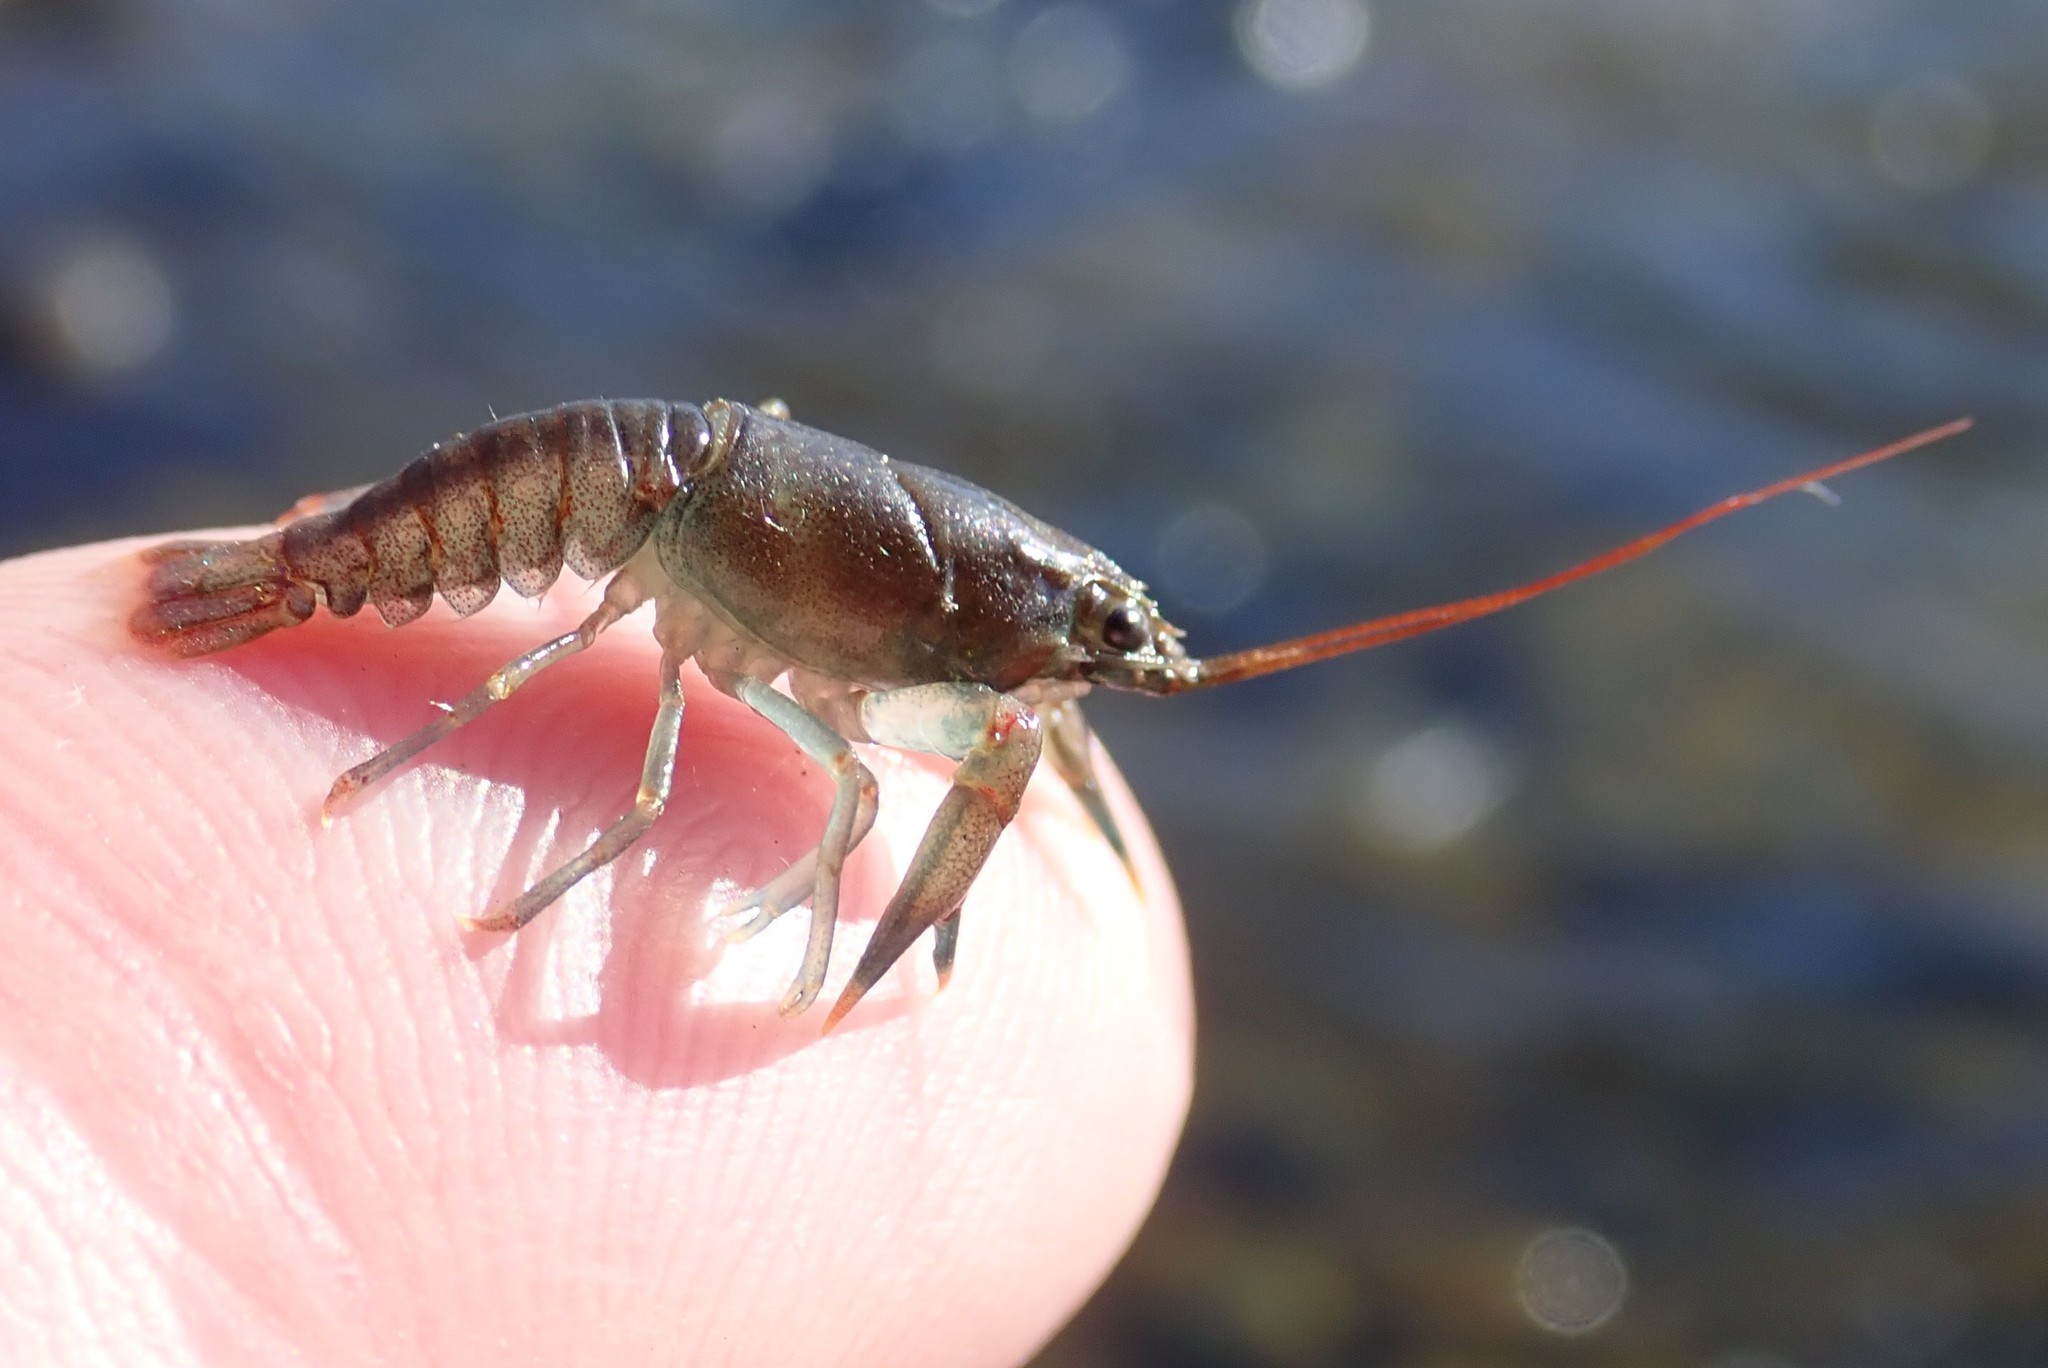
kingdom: Animalia
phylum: Arthropoda
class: Malacostraca
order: Decapoda
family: Cambaridae
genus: Faxonius
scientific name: Faxonius rusticus
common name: Rusty crayfish
